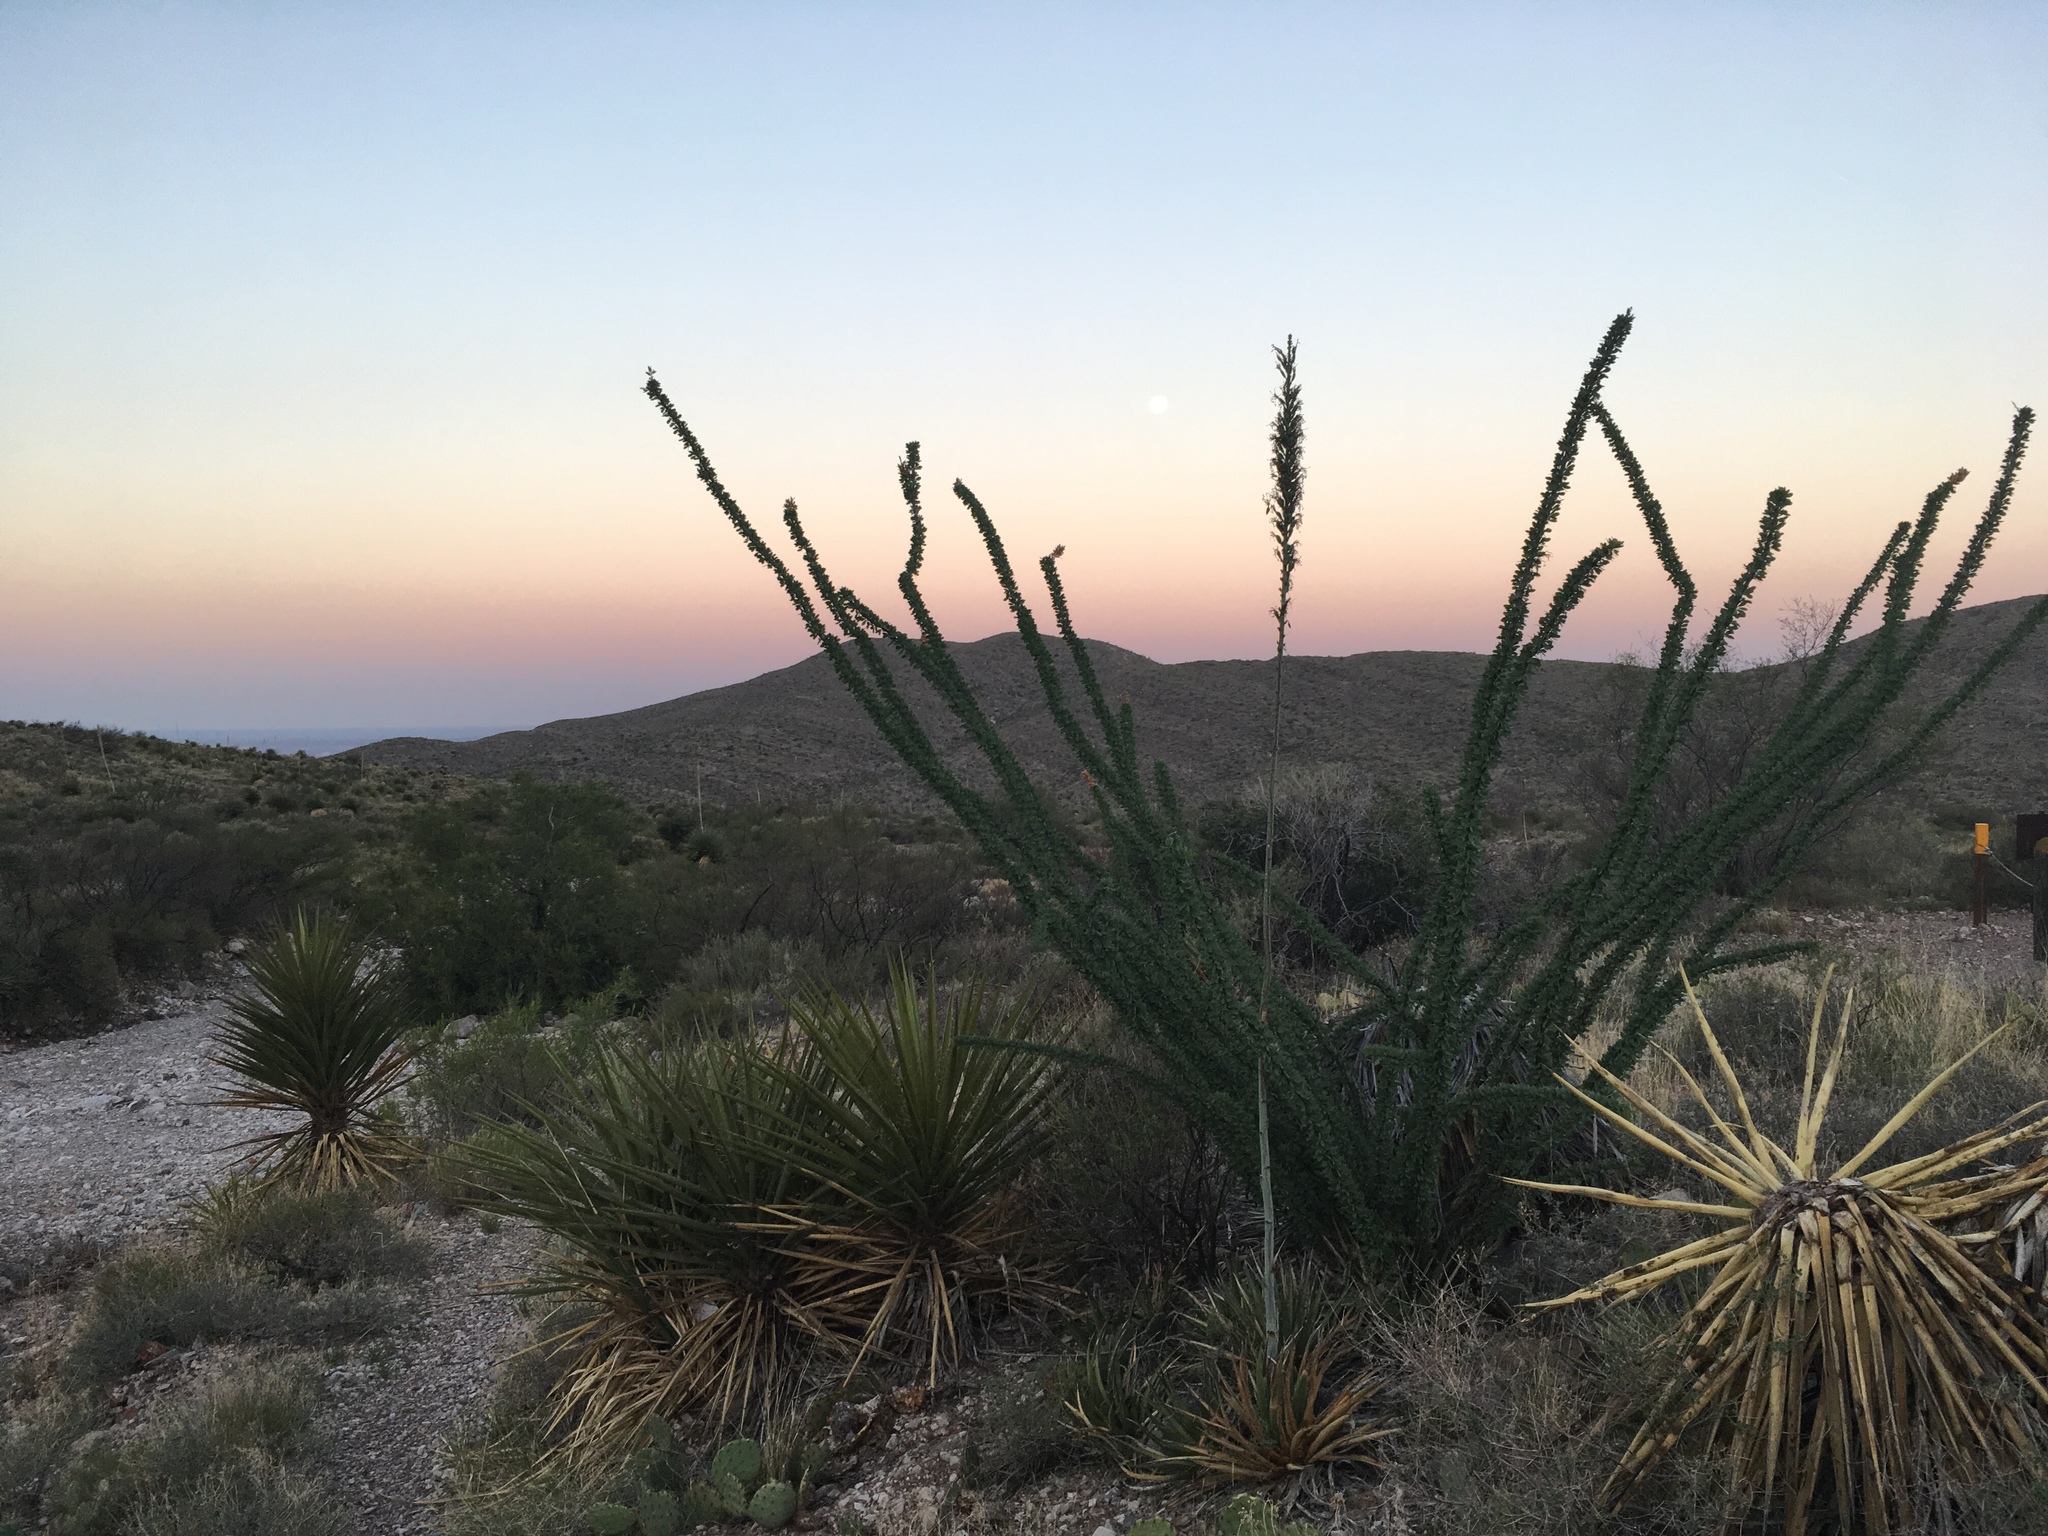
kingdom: Plantae
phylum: Tracheophyta
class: Magnoliopsida
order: Ericales
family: Fouquieriaceae
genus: Fouquieria
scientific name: Fouquieria splendens
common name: Vine-cactus
